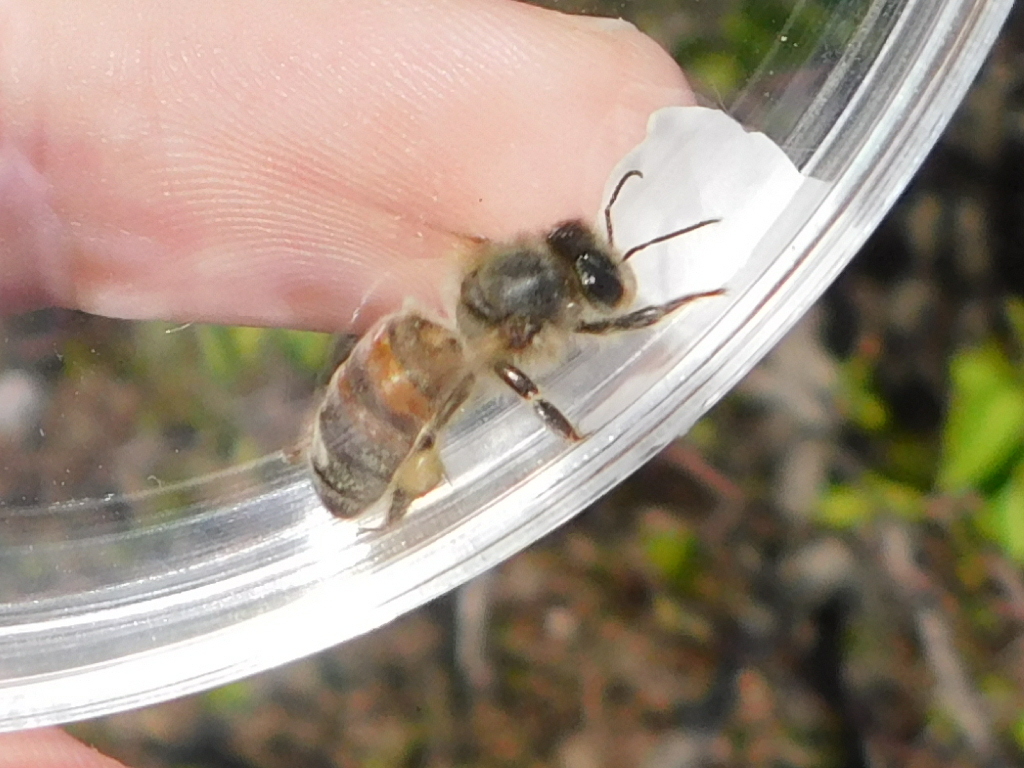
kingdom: Animalia
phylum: Arthropoda
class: Insecta
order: Hymenoptera
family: Apidae
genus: Apis
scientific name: Apis mellifera
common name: Honey bee
